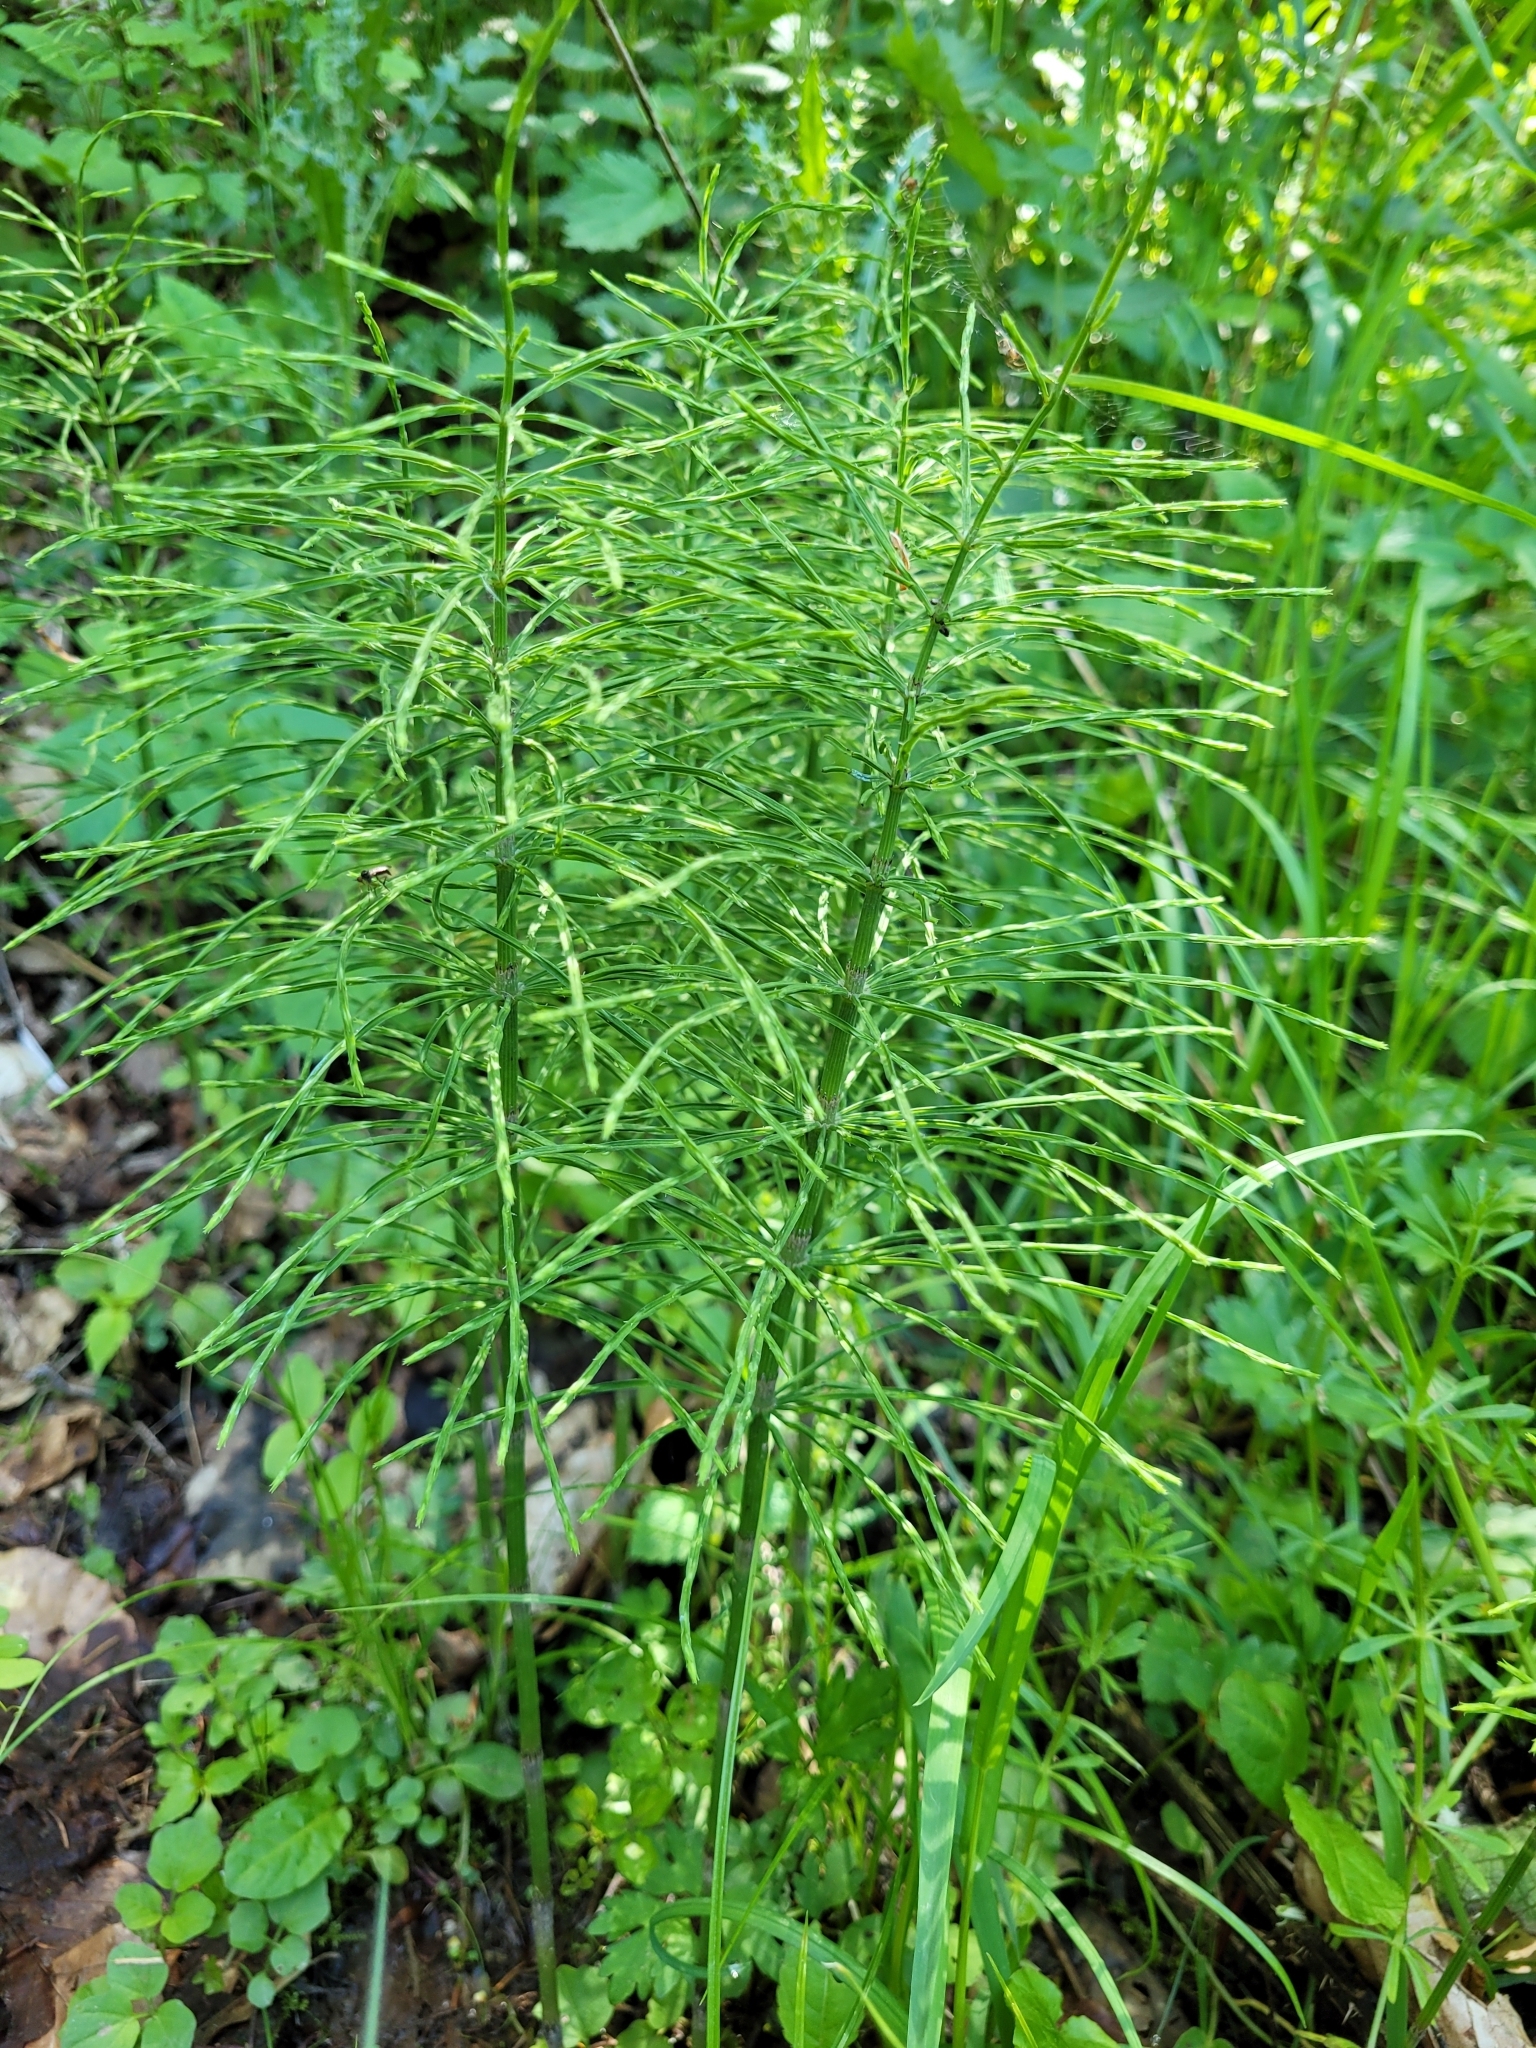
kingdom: Plantae
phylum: Tracheophyta
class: Polypodiopsida
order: Equisetales
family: Equisetaceae
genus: Equisetum
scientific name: Equisetum arvense
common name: Field horsetail
